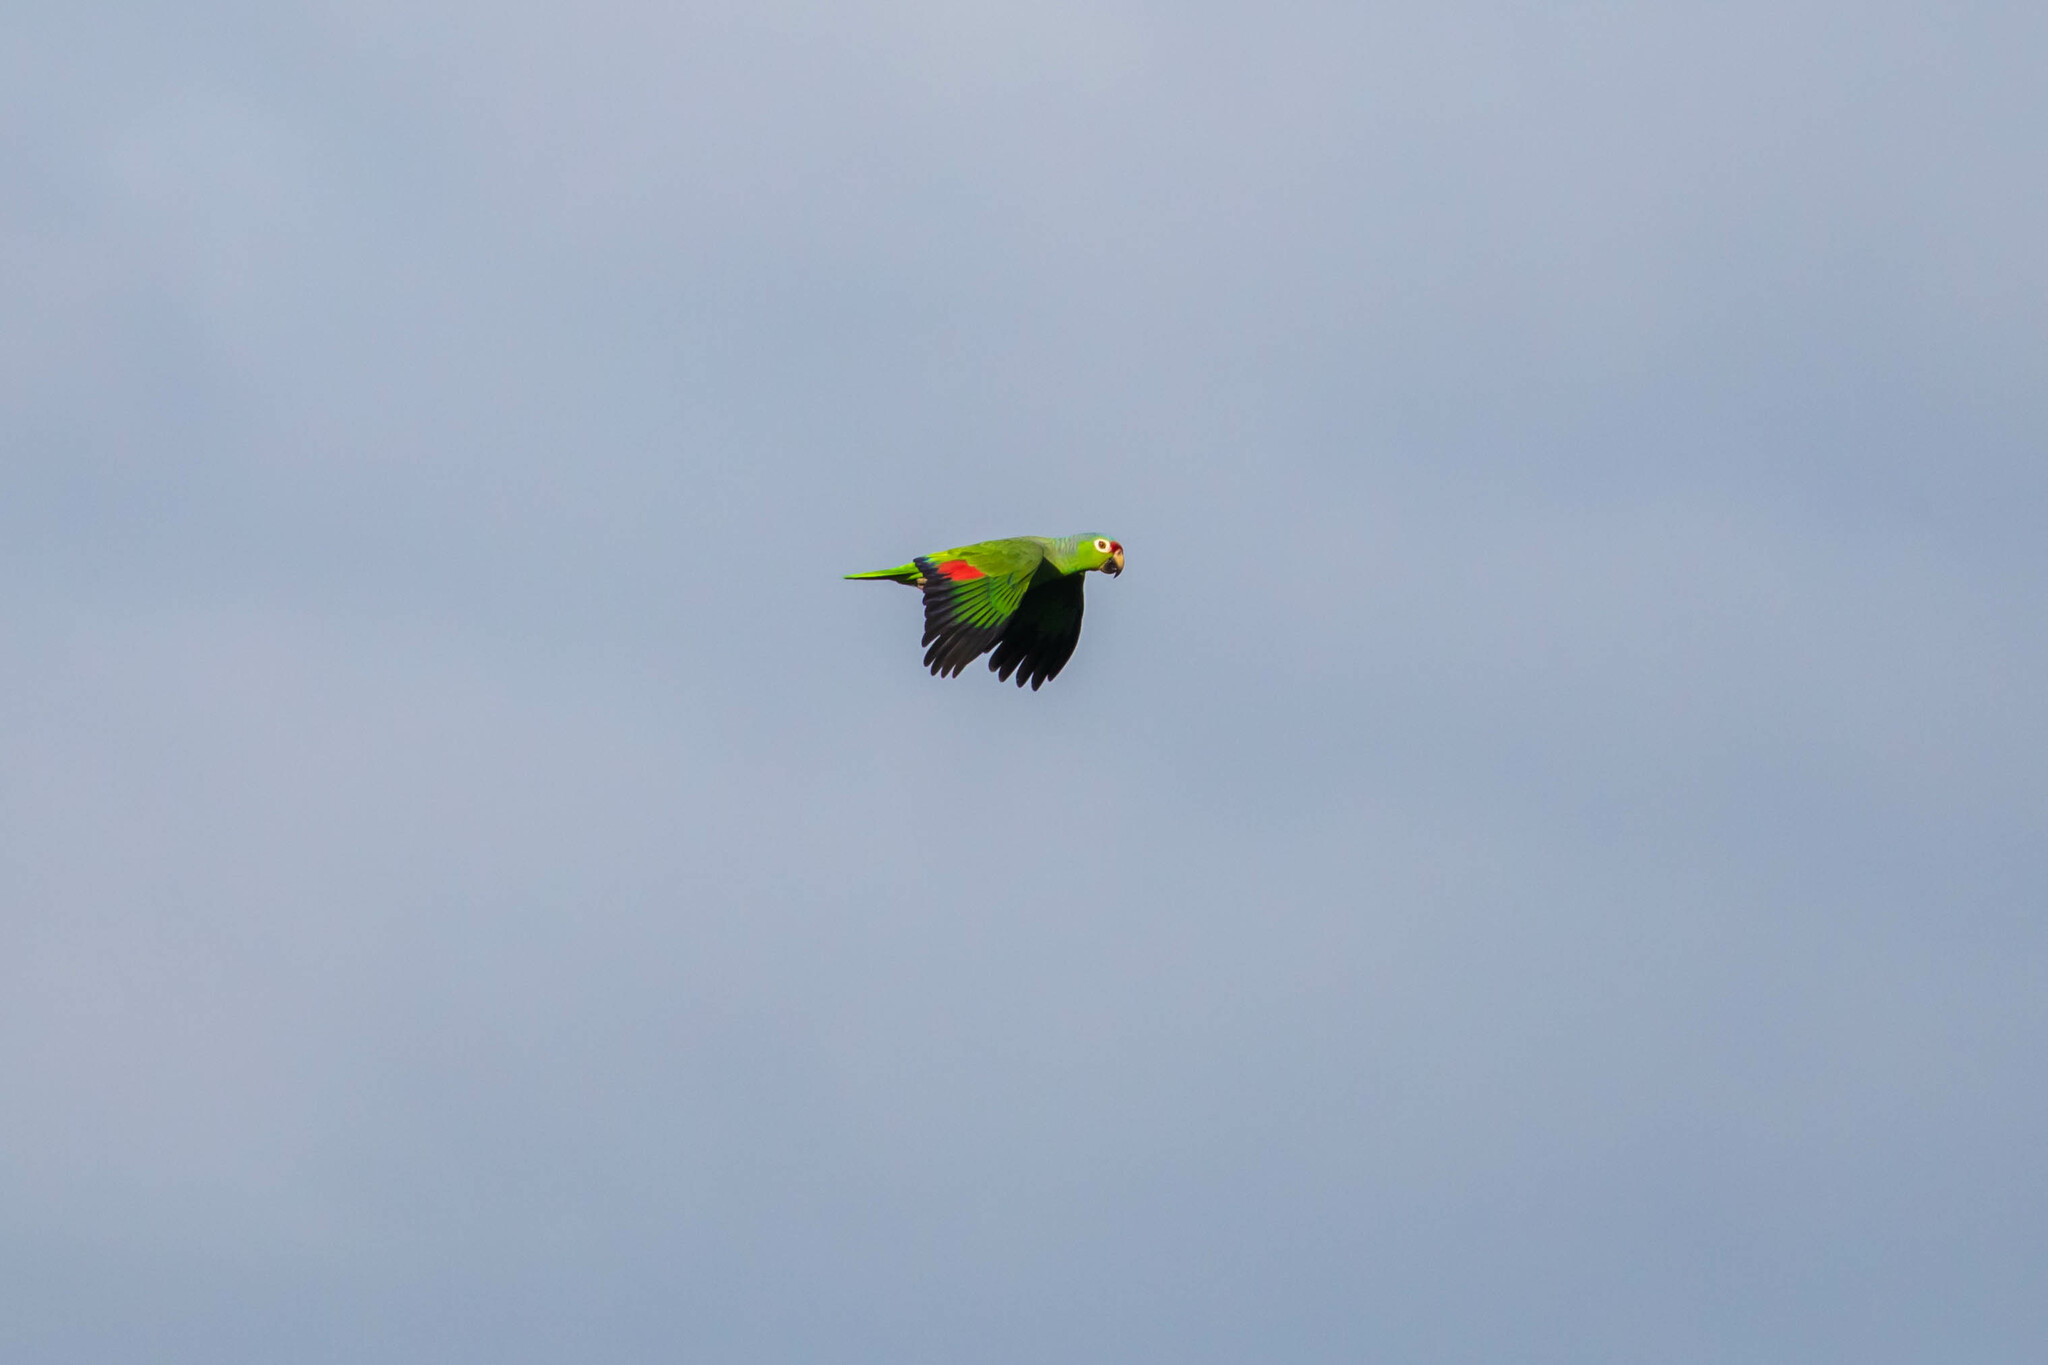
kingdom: Animalia
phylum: Chordata
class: Aves
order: Psittaciformes
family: Psittacidae
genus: Amazona
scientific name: Amazona autumnalis
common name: Red-lored amazon
